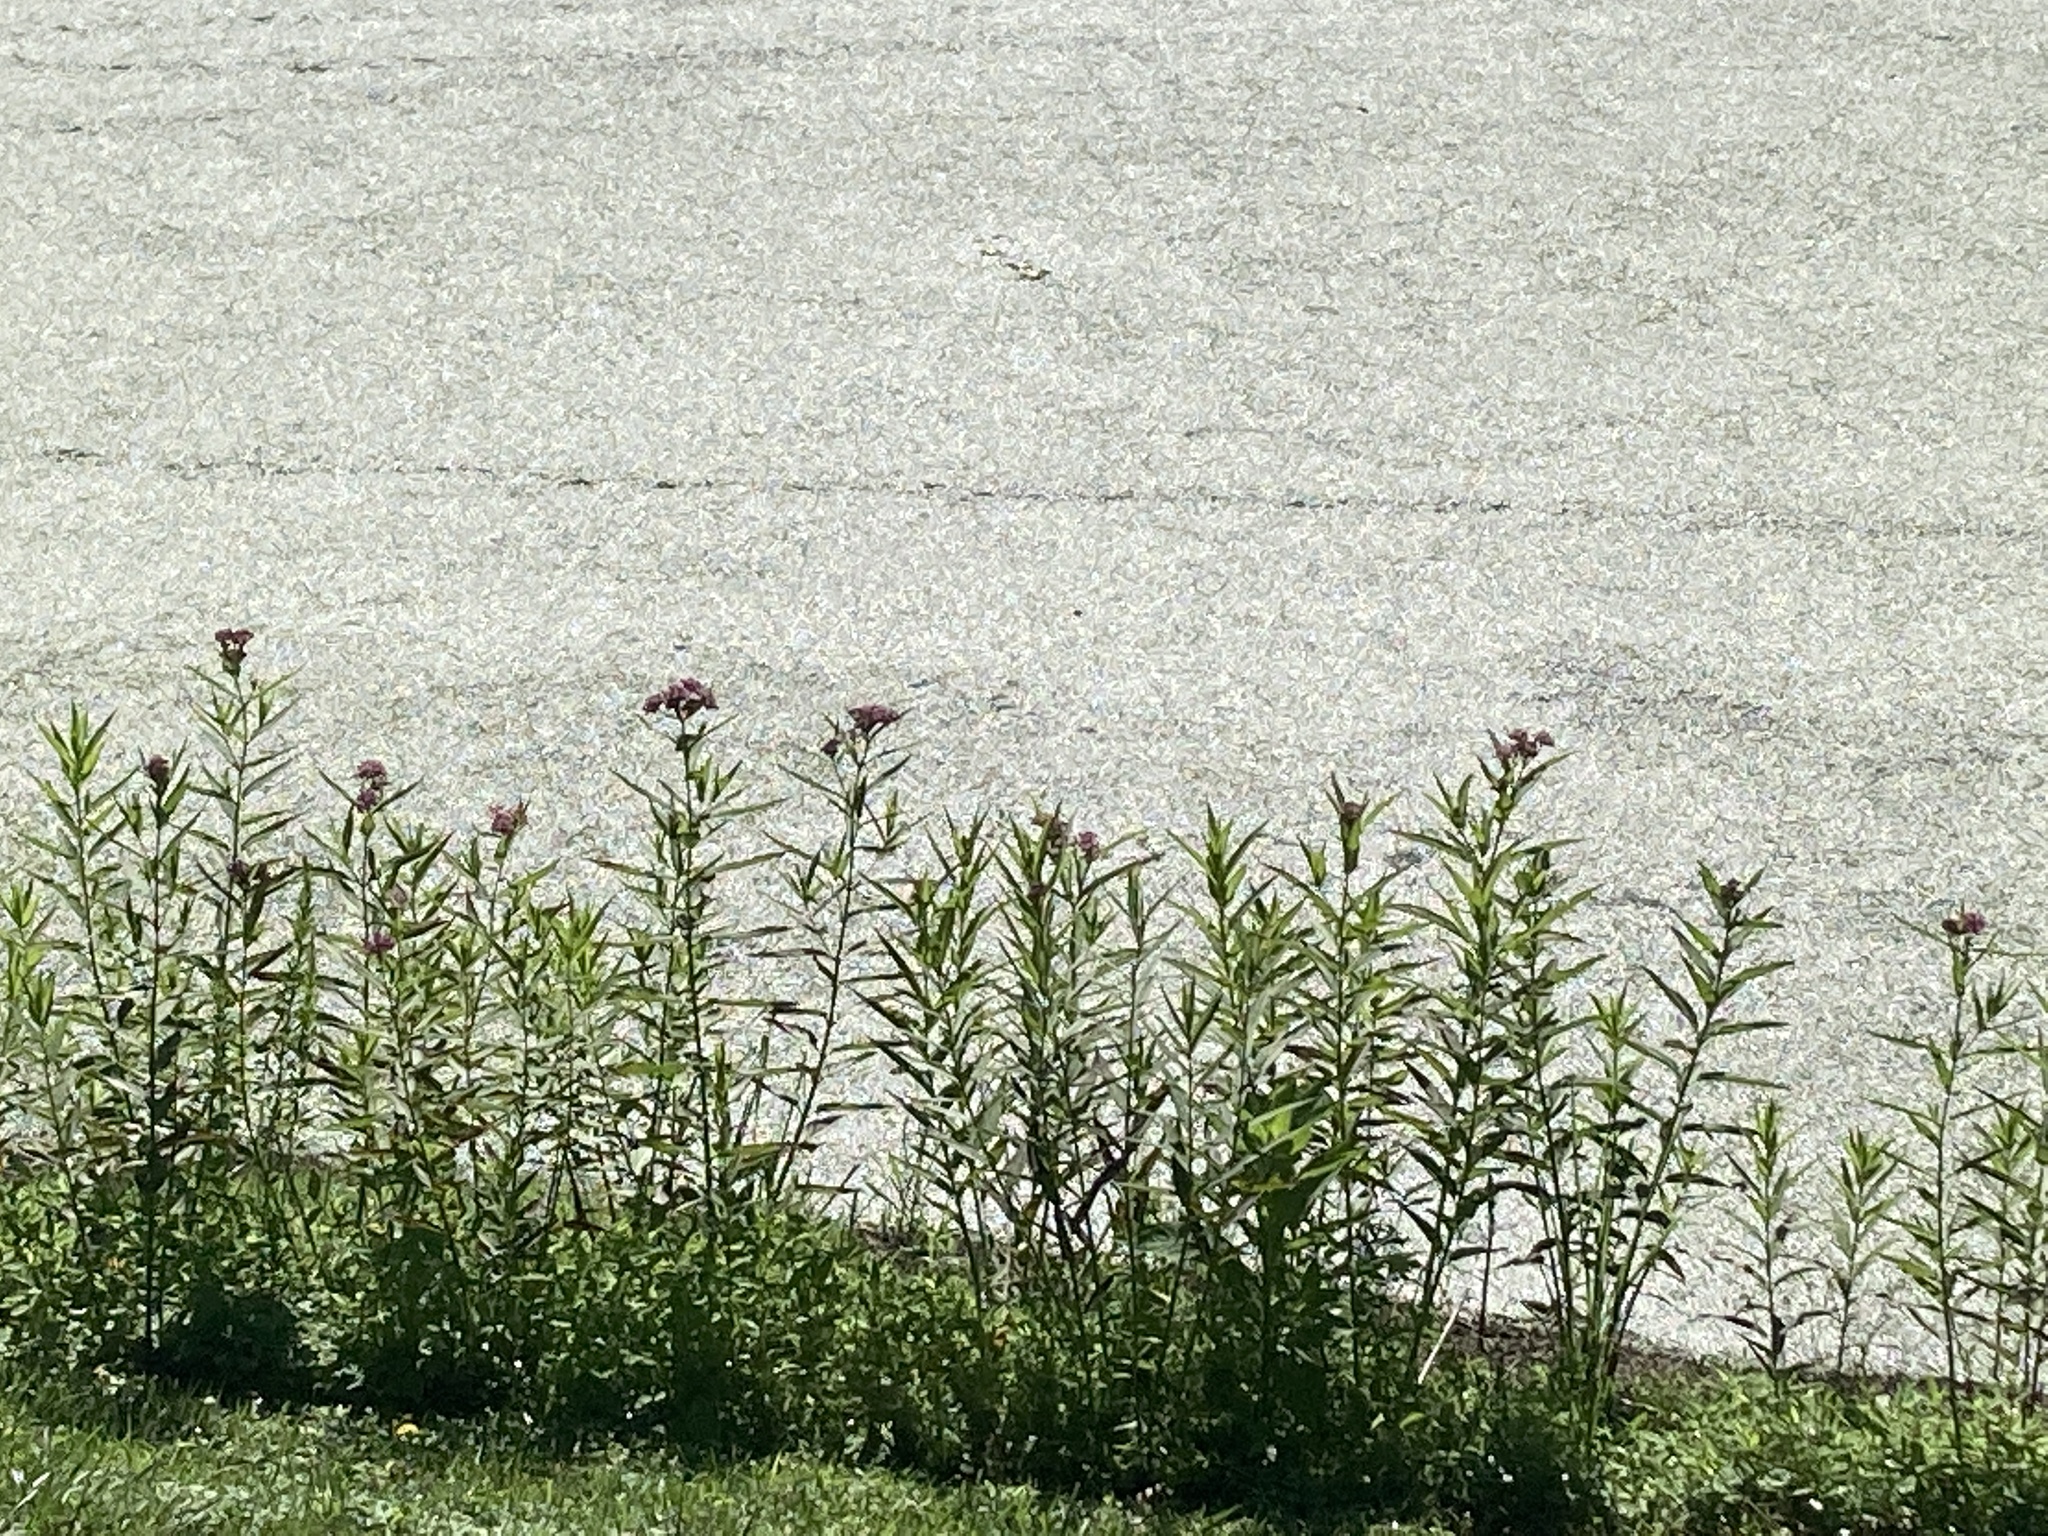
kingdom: Plantae
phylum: Tracheophyta
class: Magnoliopsida
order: Gentianales
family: Apocynaceae
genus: Asclepias
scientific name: Asclepias incarnata
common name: Swamp milkweed
